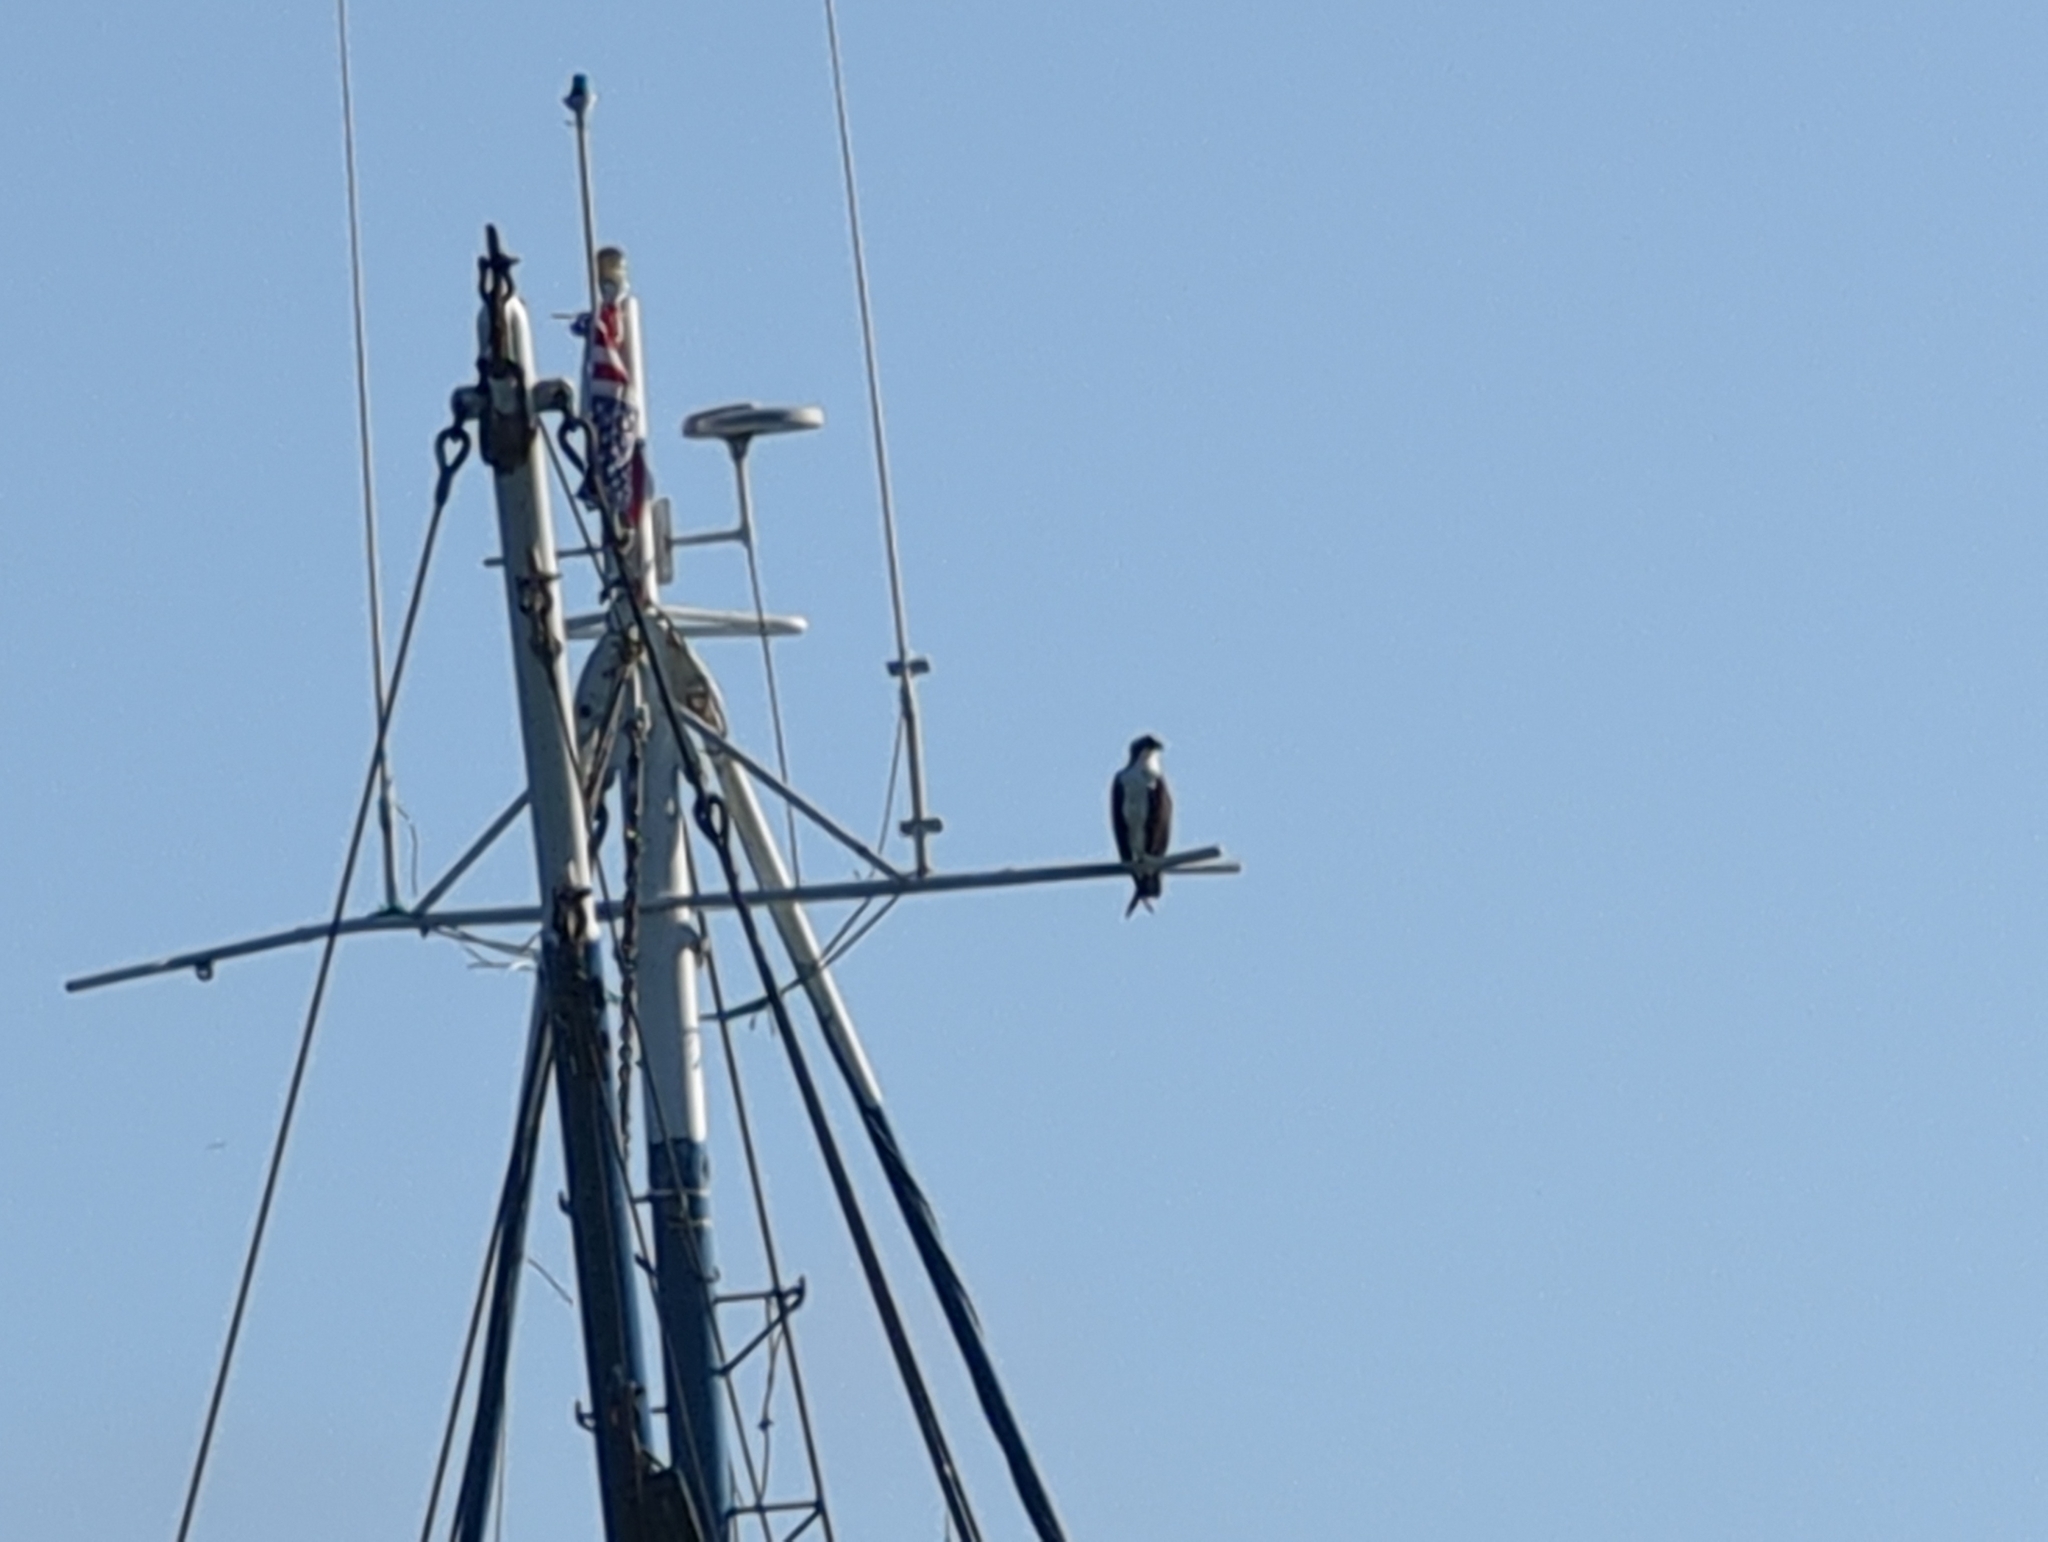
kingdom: Animalia
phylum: Chordata
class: Aves
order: Accipitriformes
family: Pandionidae
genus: Pandion
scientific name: Pandion haliaetus
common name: Osprey
